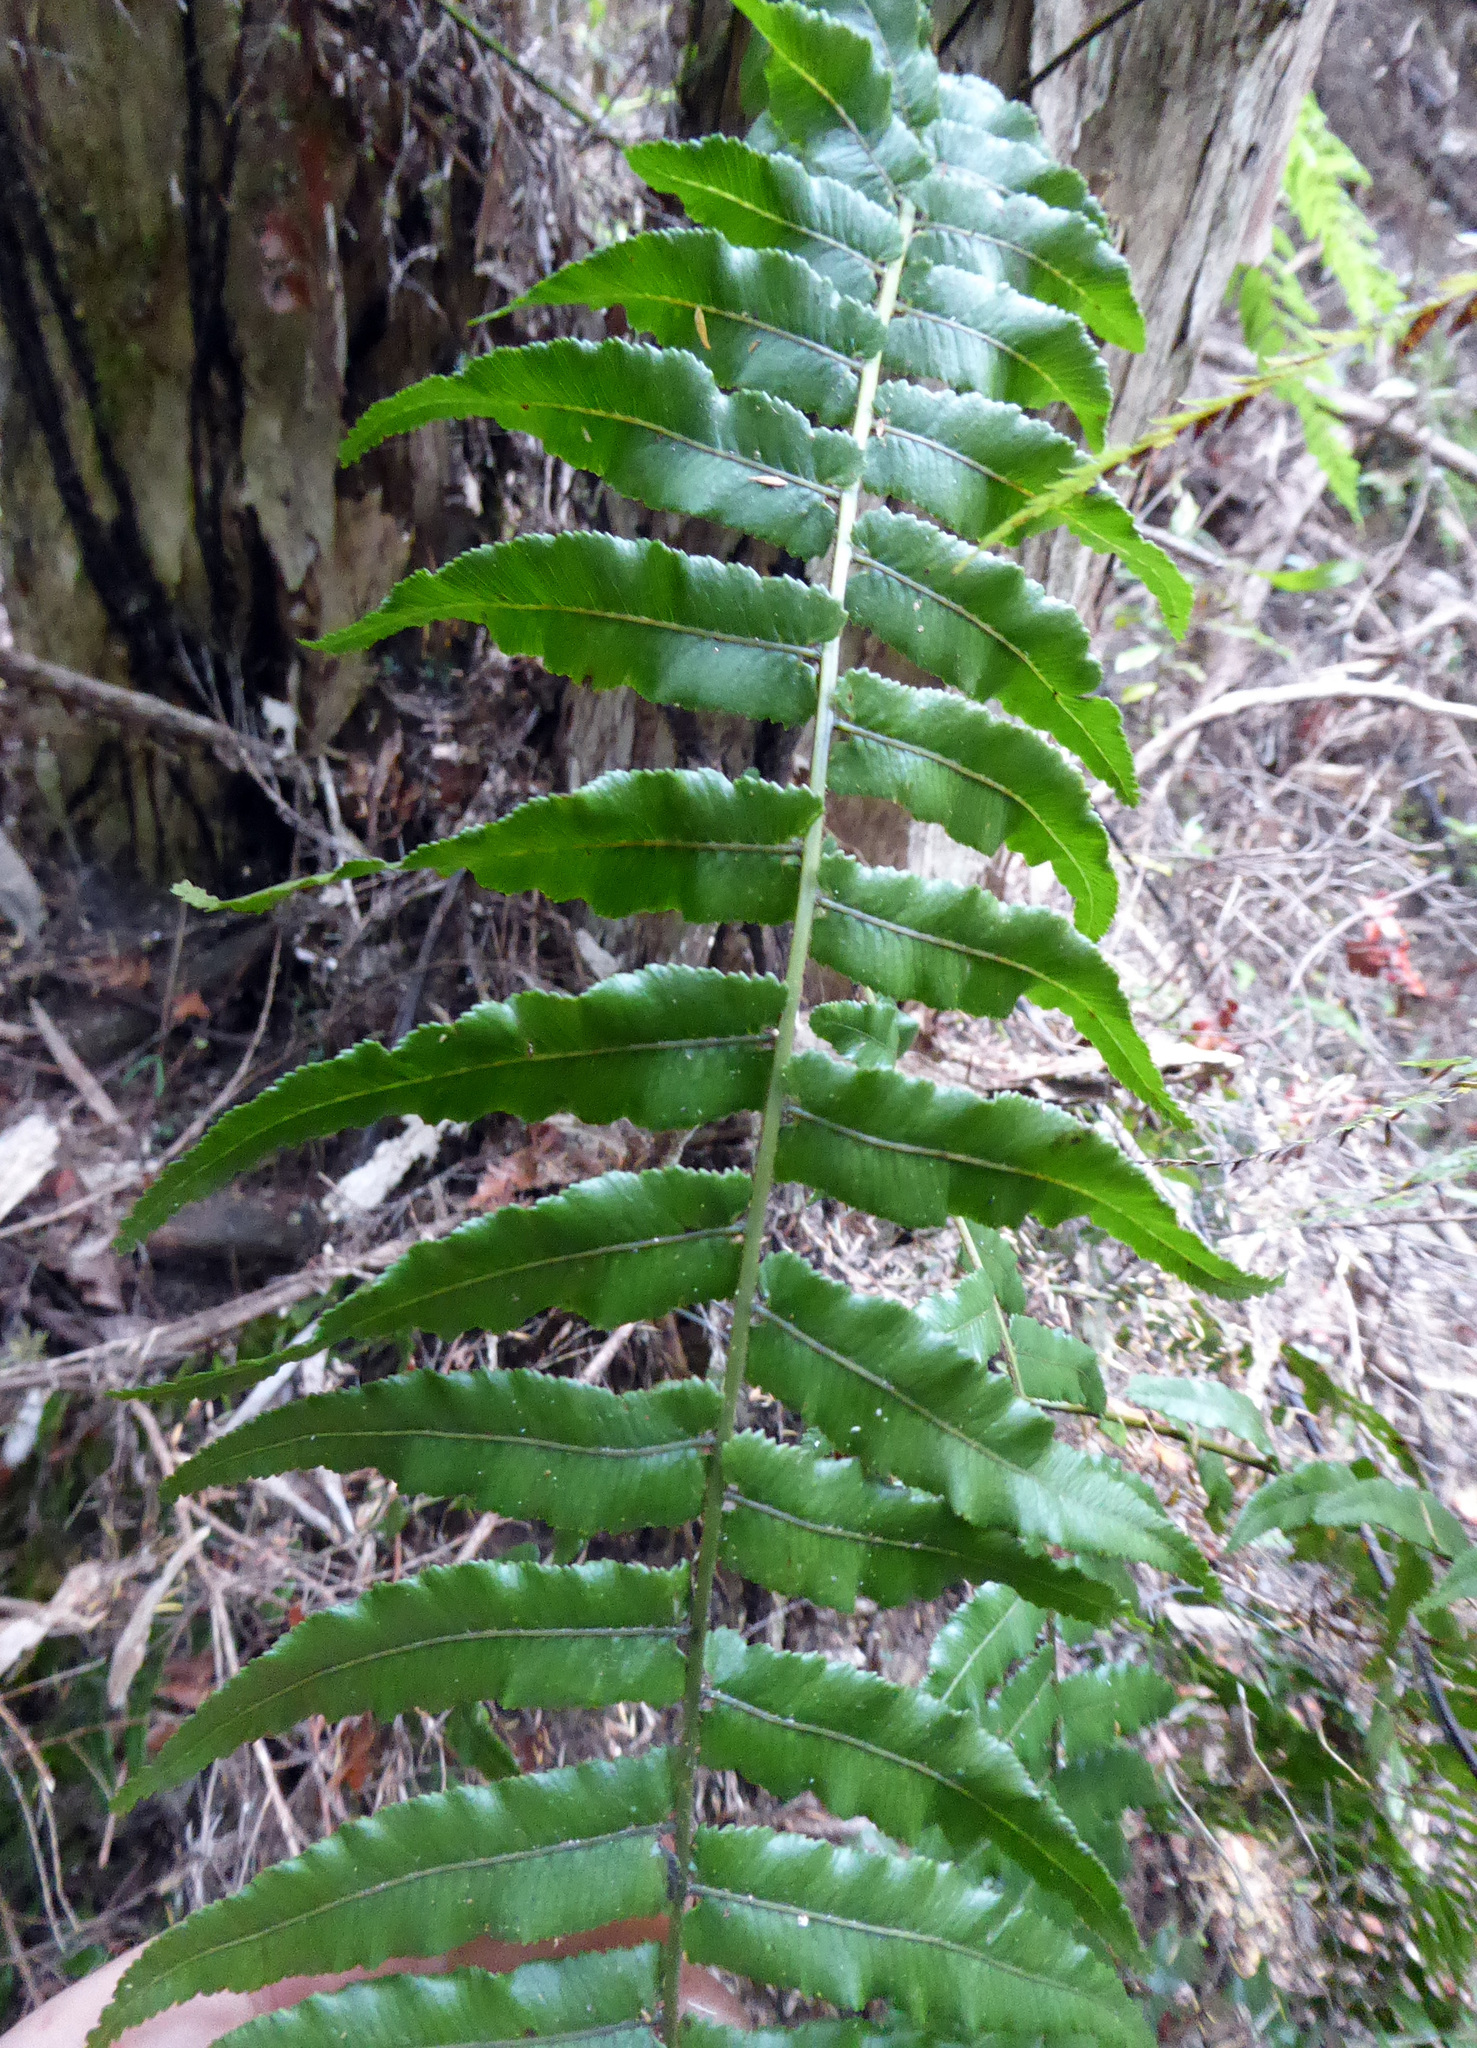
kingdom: Plantae
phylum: Tracheophyta
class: Polypodiopsida
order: Polypodiales
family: Blechnaceae
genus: Icarus
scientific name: Icarus filiformis
